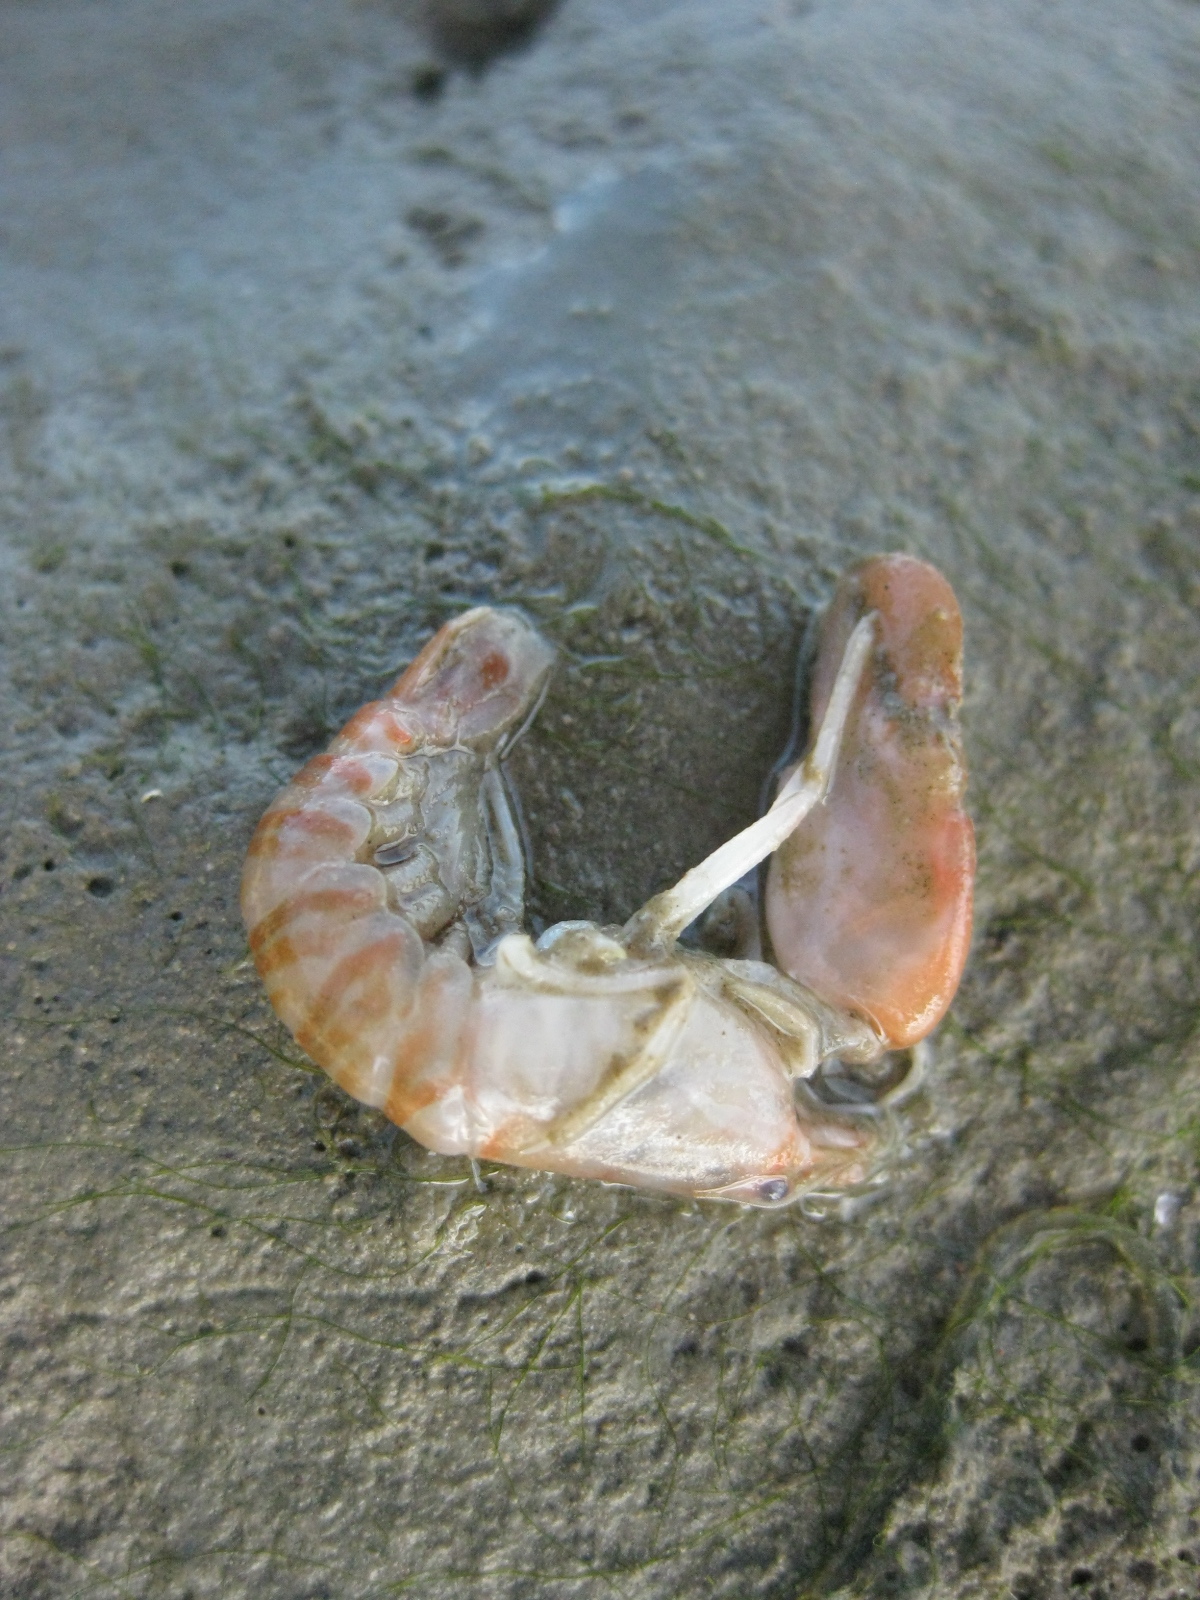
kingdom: Animalia
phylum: Arthropoda
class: Malacostraca
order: Decapoda
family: Alpheidae
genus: Alpheus
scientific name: Alpheus richardsoni
